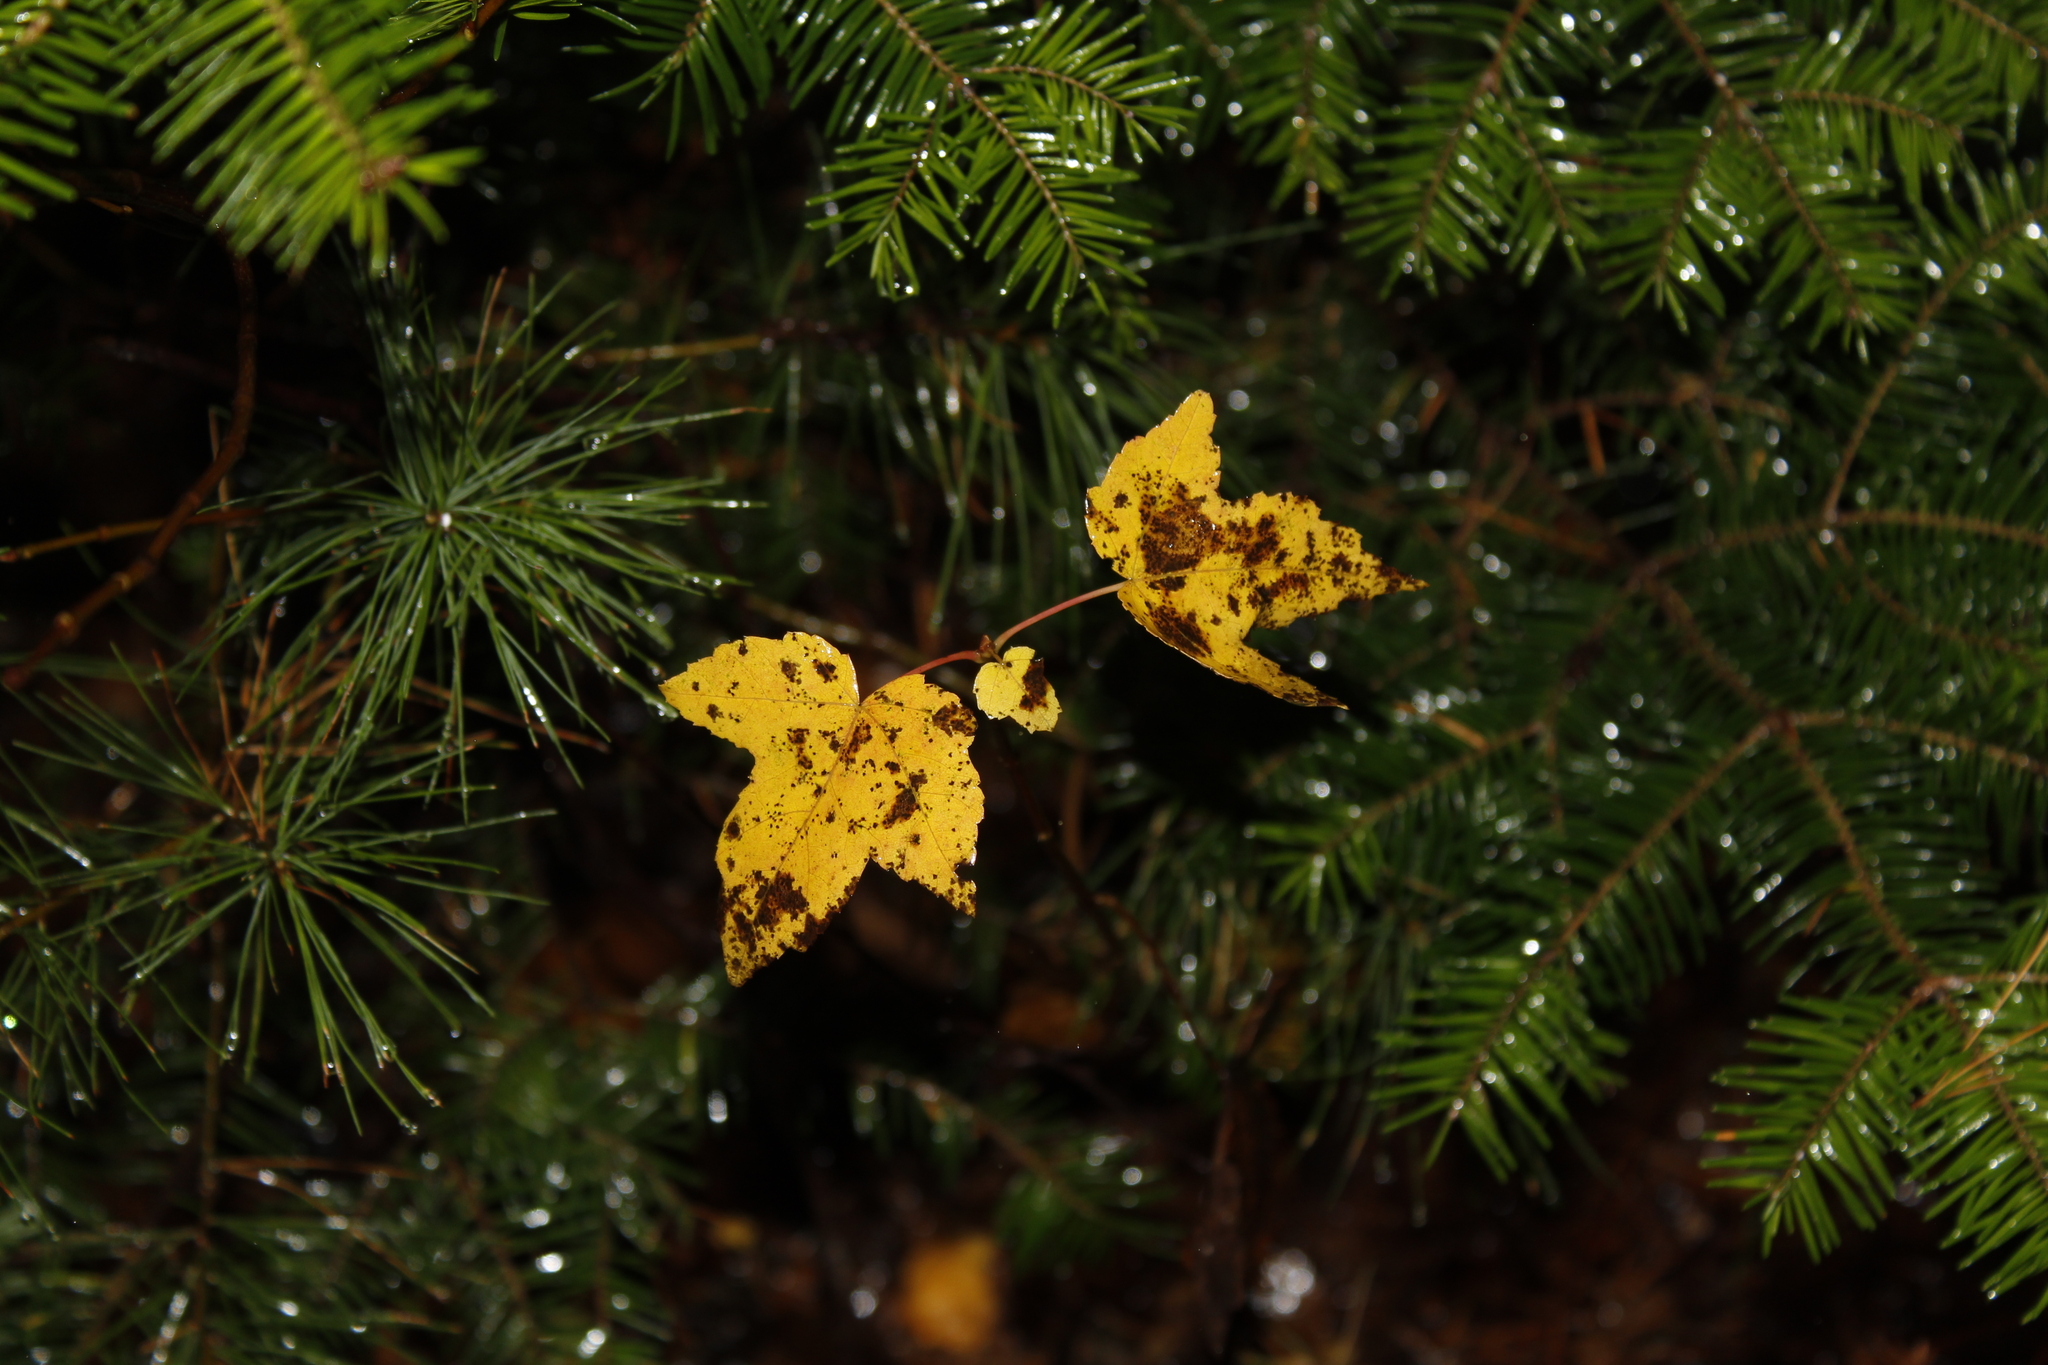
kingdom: Plantae
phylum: Tracheophyta
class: Magnoliopsida
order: Sapindales
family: Sapindaceae
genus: Acer
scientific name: Acer rubrum
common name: Red maple
